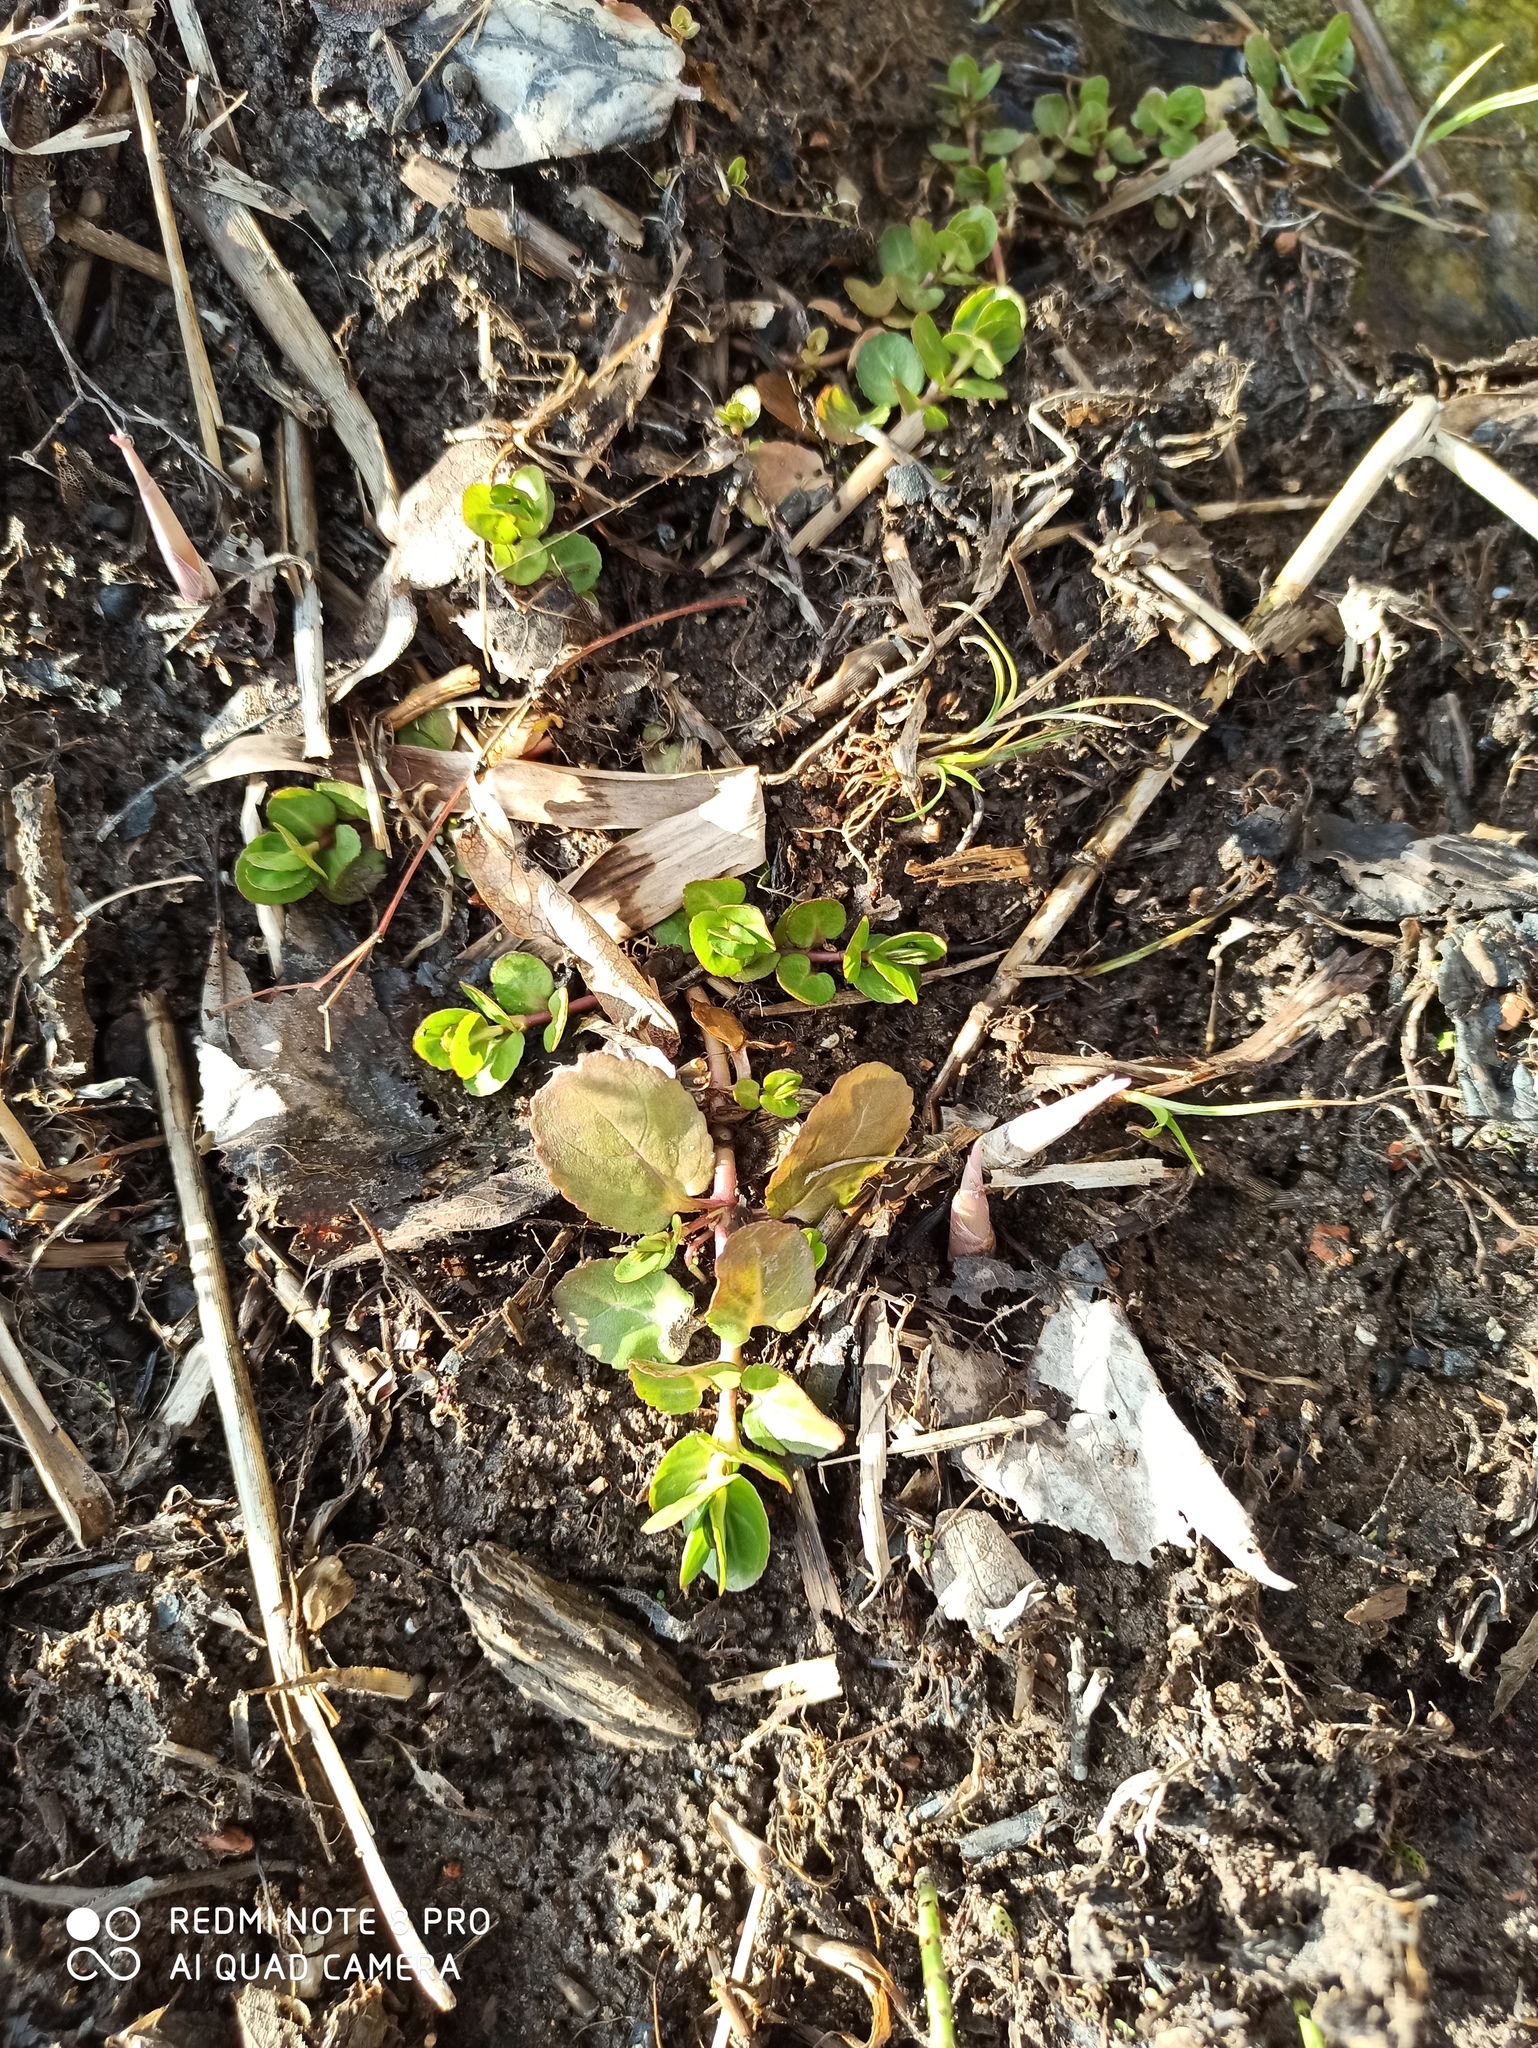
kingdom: Plantae
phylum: Tracheophyta
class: Magnoliopsida
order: Ericales
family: Primulaceae
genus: Lysimachia
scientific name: Lysimachia nummularia
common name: Moneywort
